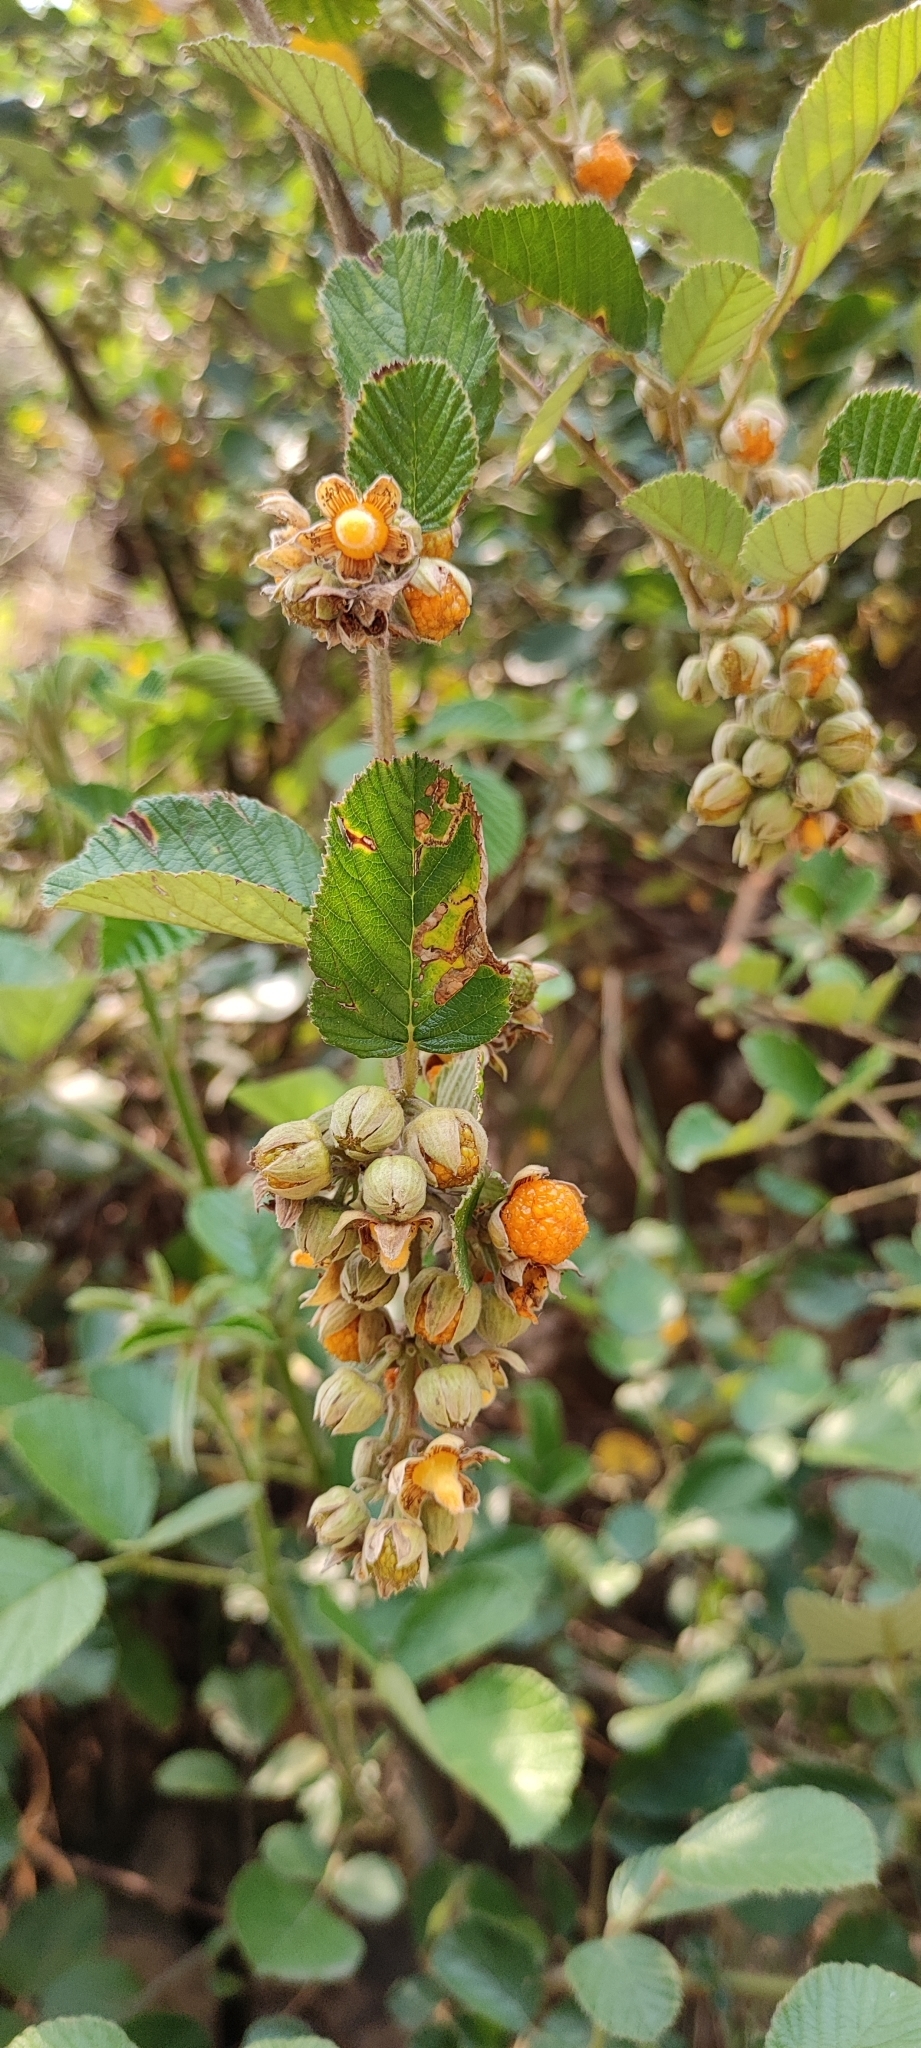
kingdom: Plantae
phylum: Tracheophyta
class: Magnoliopsida
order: Rosales
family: Rosaceae
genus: Rubus
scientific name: Rubus ellipticus
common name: Cheeseberry
